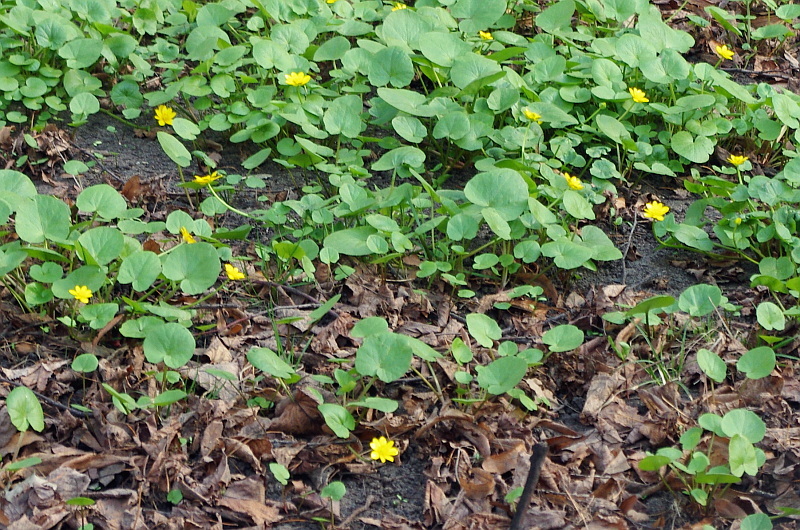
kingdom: Plantae
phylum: Tracheophyta
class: Magnoliopsida
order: Ranunculales
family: Ranunculaceae
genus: Ficaria
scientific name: Ficaria verna
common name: Lesser celandine
